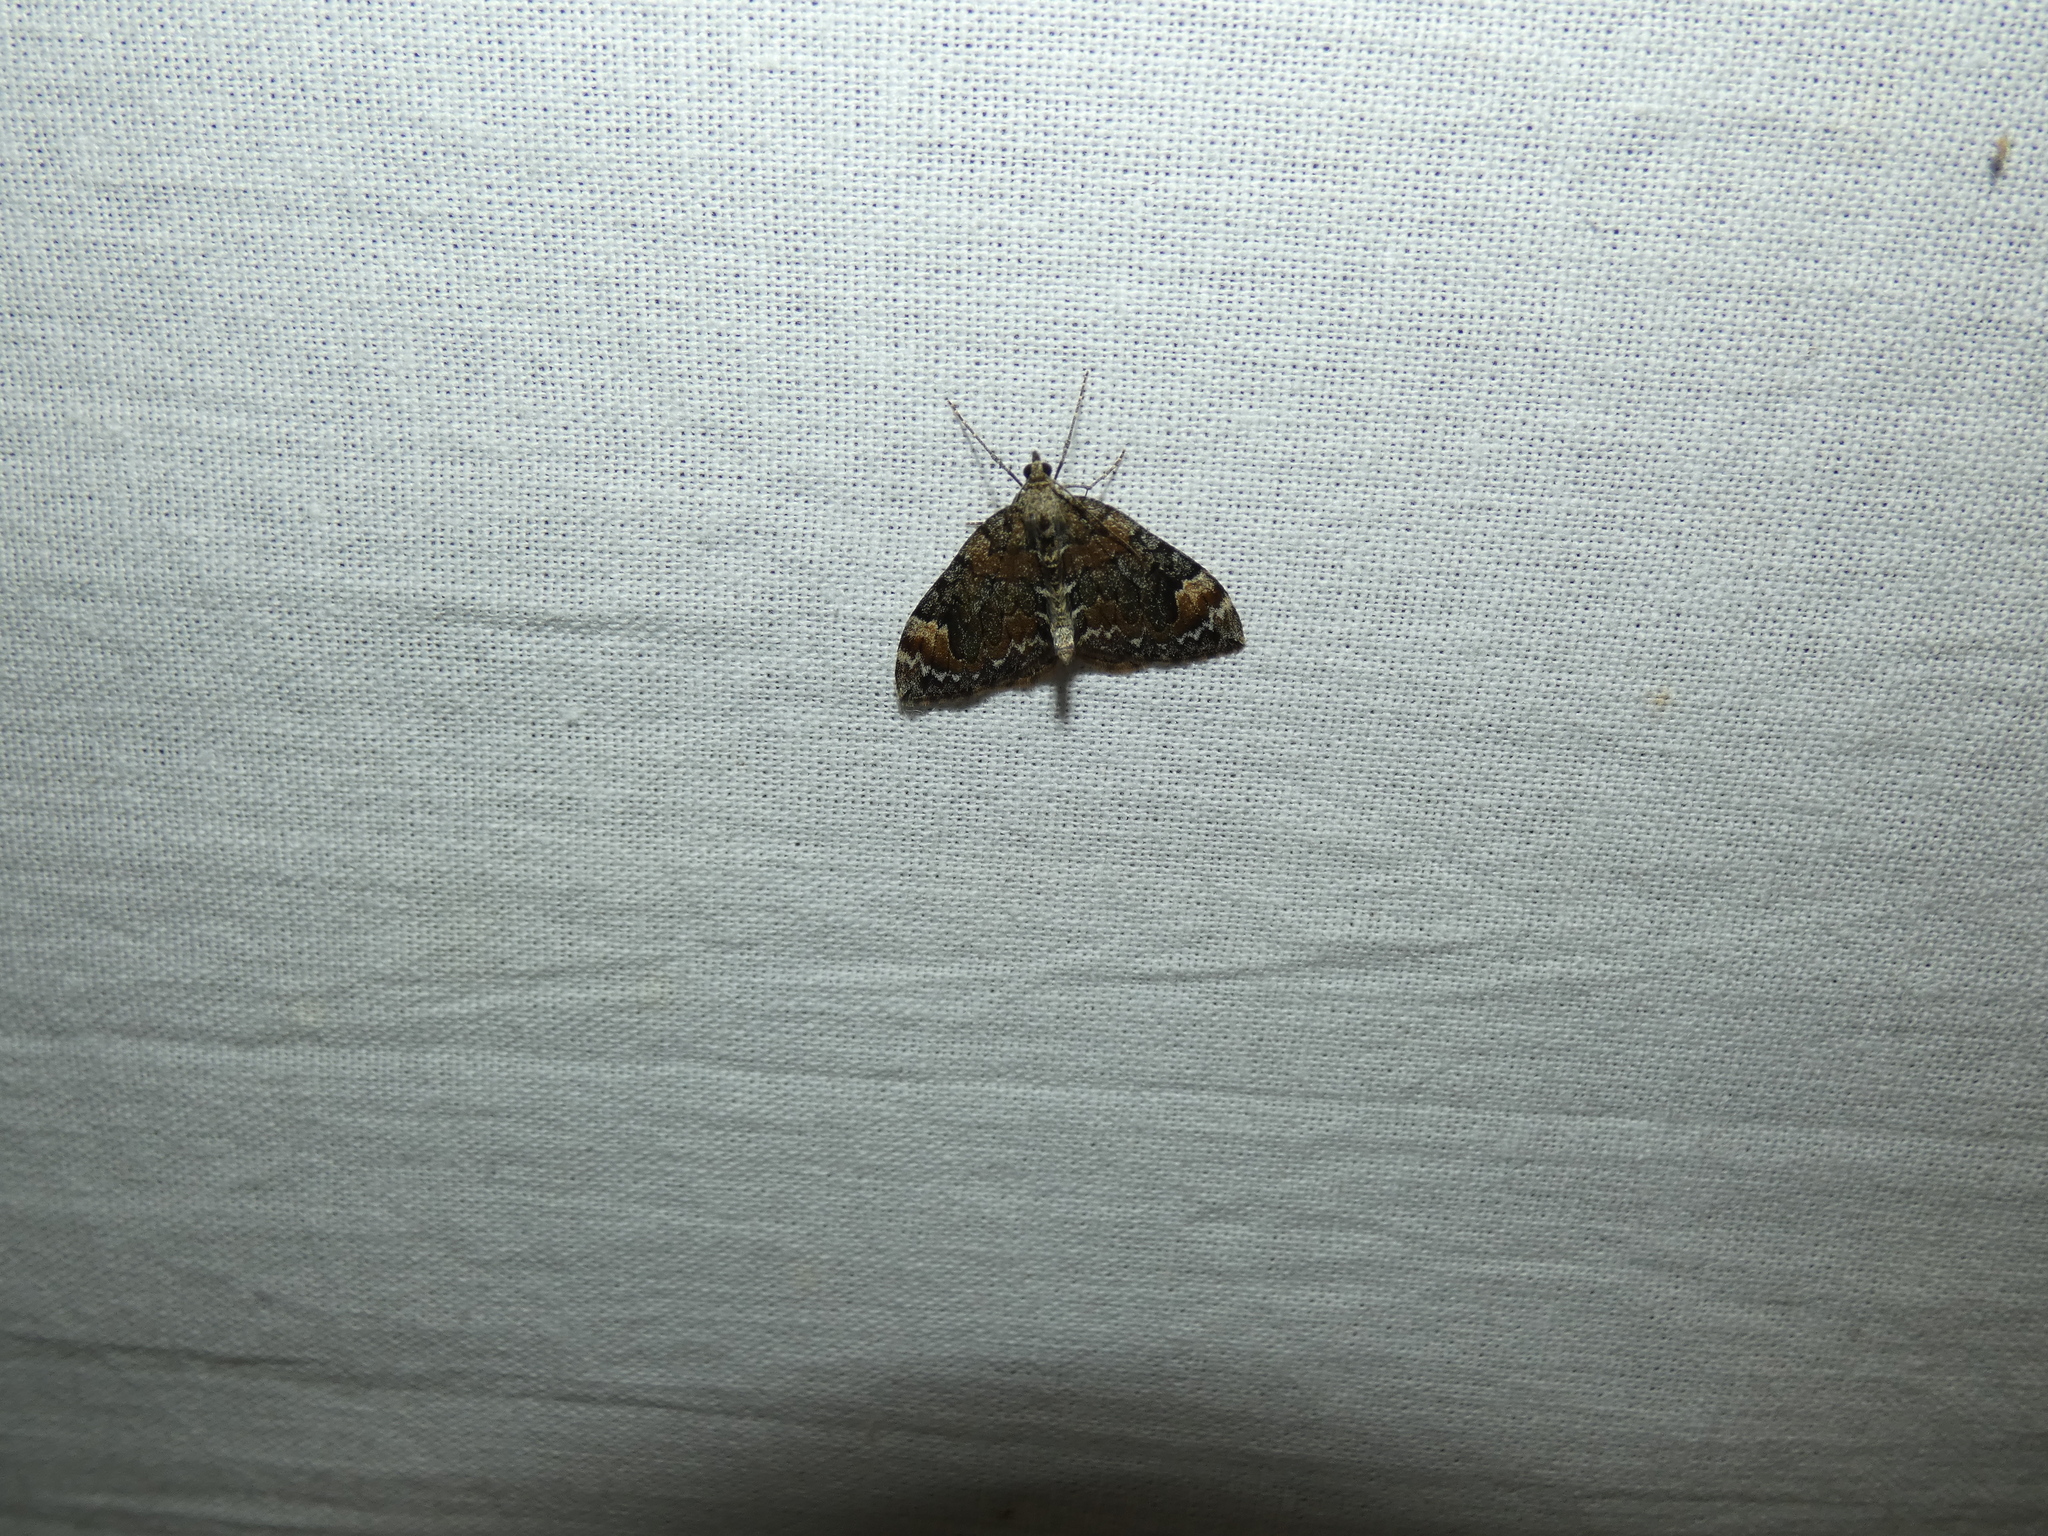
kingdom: Animalia
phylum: Arthropoda
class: Insecta
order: Lepidoptera
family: Geometridae
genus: Dysstroma
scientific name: Dysstroma citrata
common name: Dark marbled carpet
